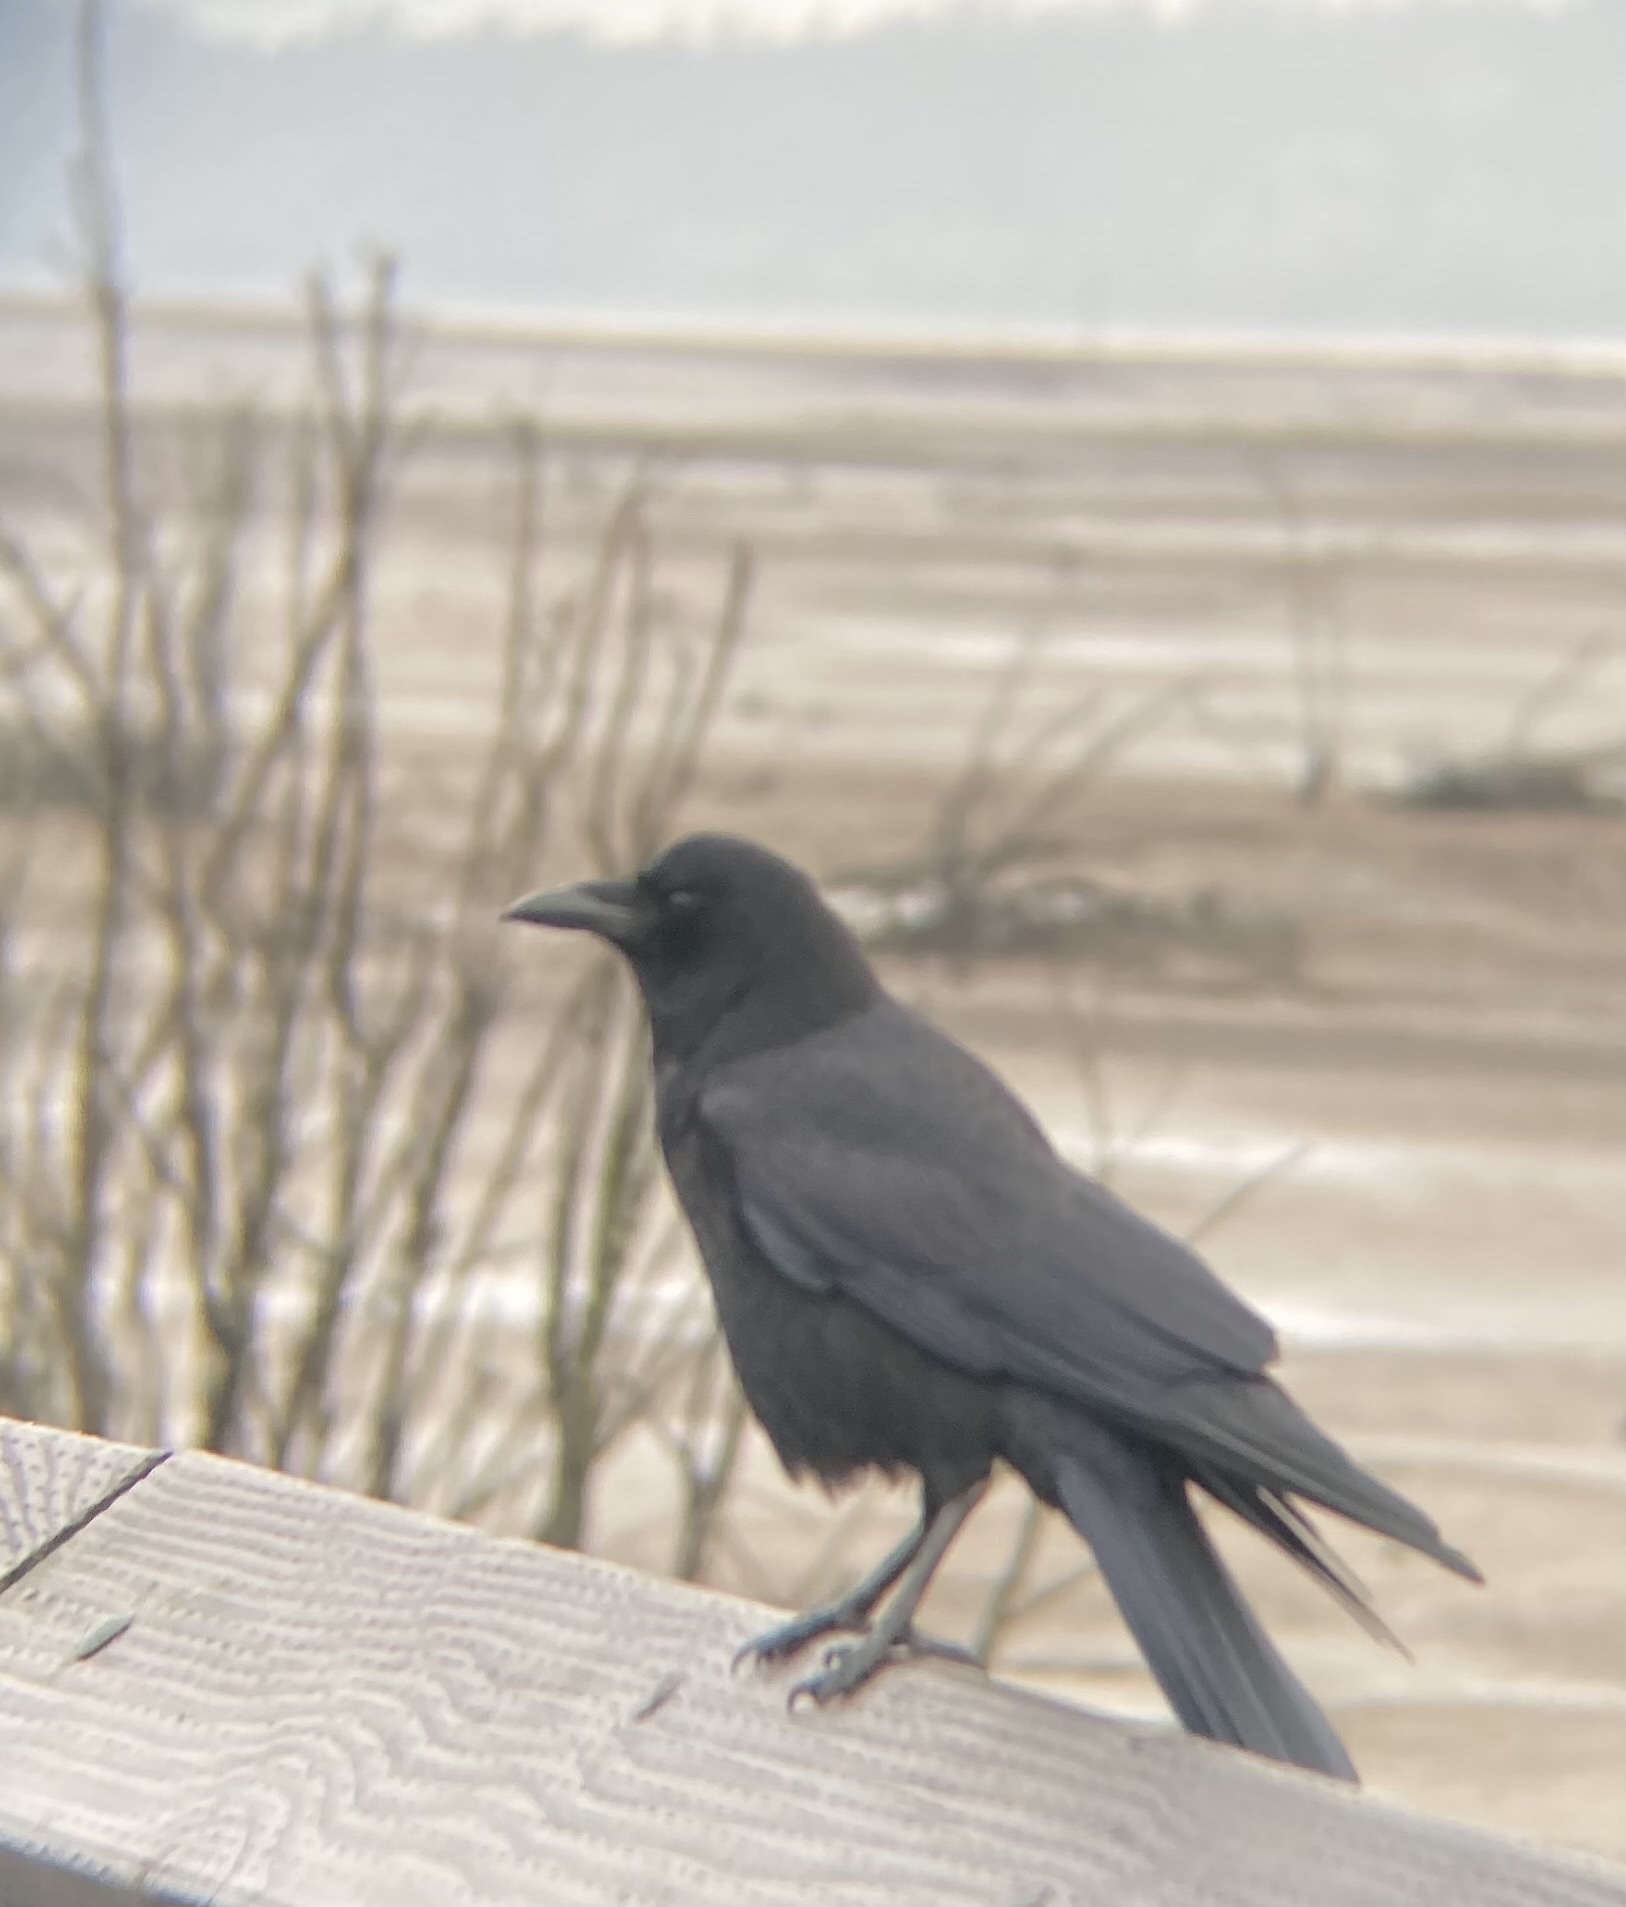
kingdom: Animalia
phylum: Chordata
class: Aves
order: Passeriformes
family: Corvidae
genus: Corvus
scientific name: Corvus brachyrhynchos
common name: American crow
